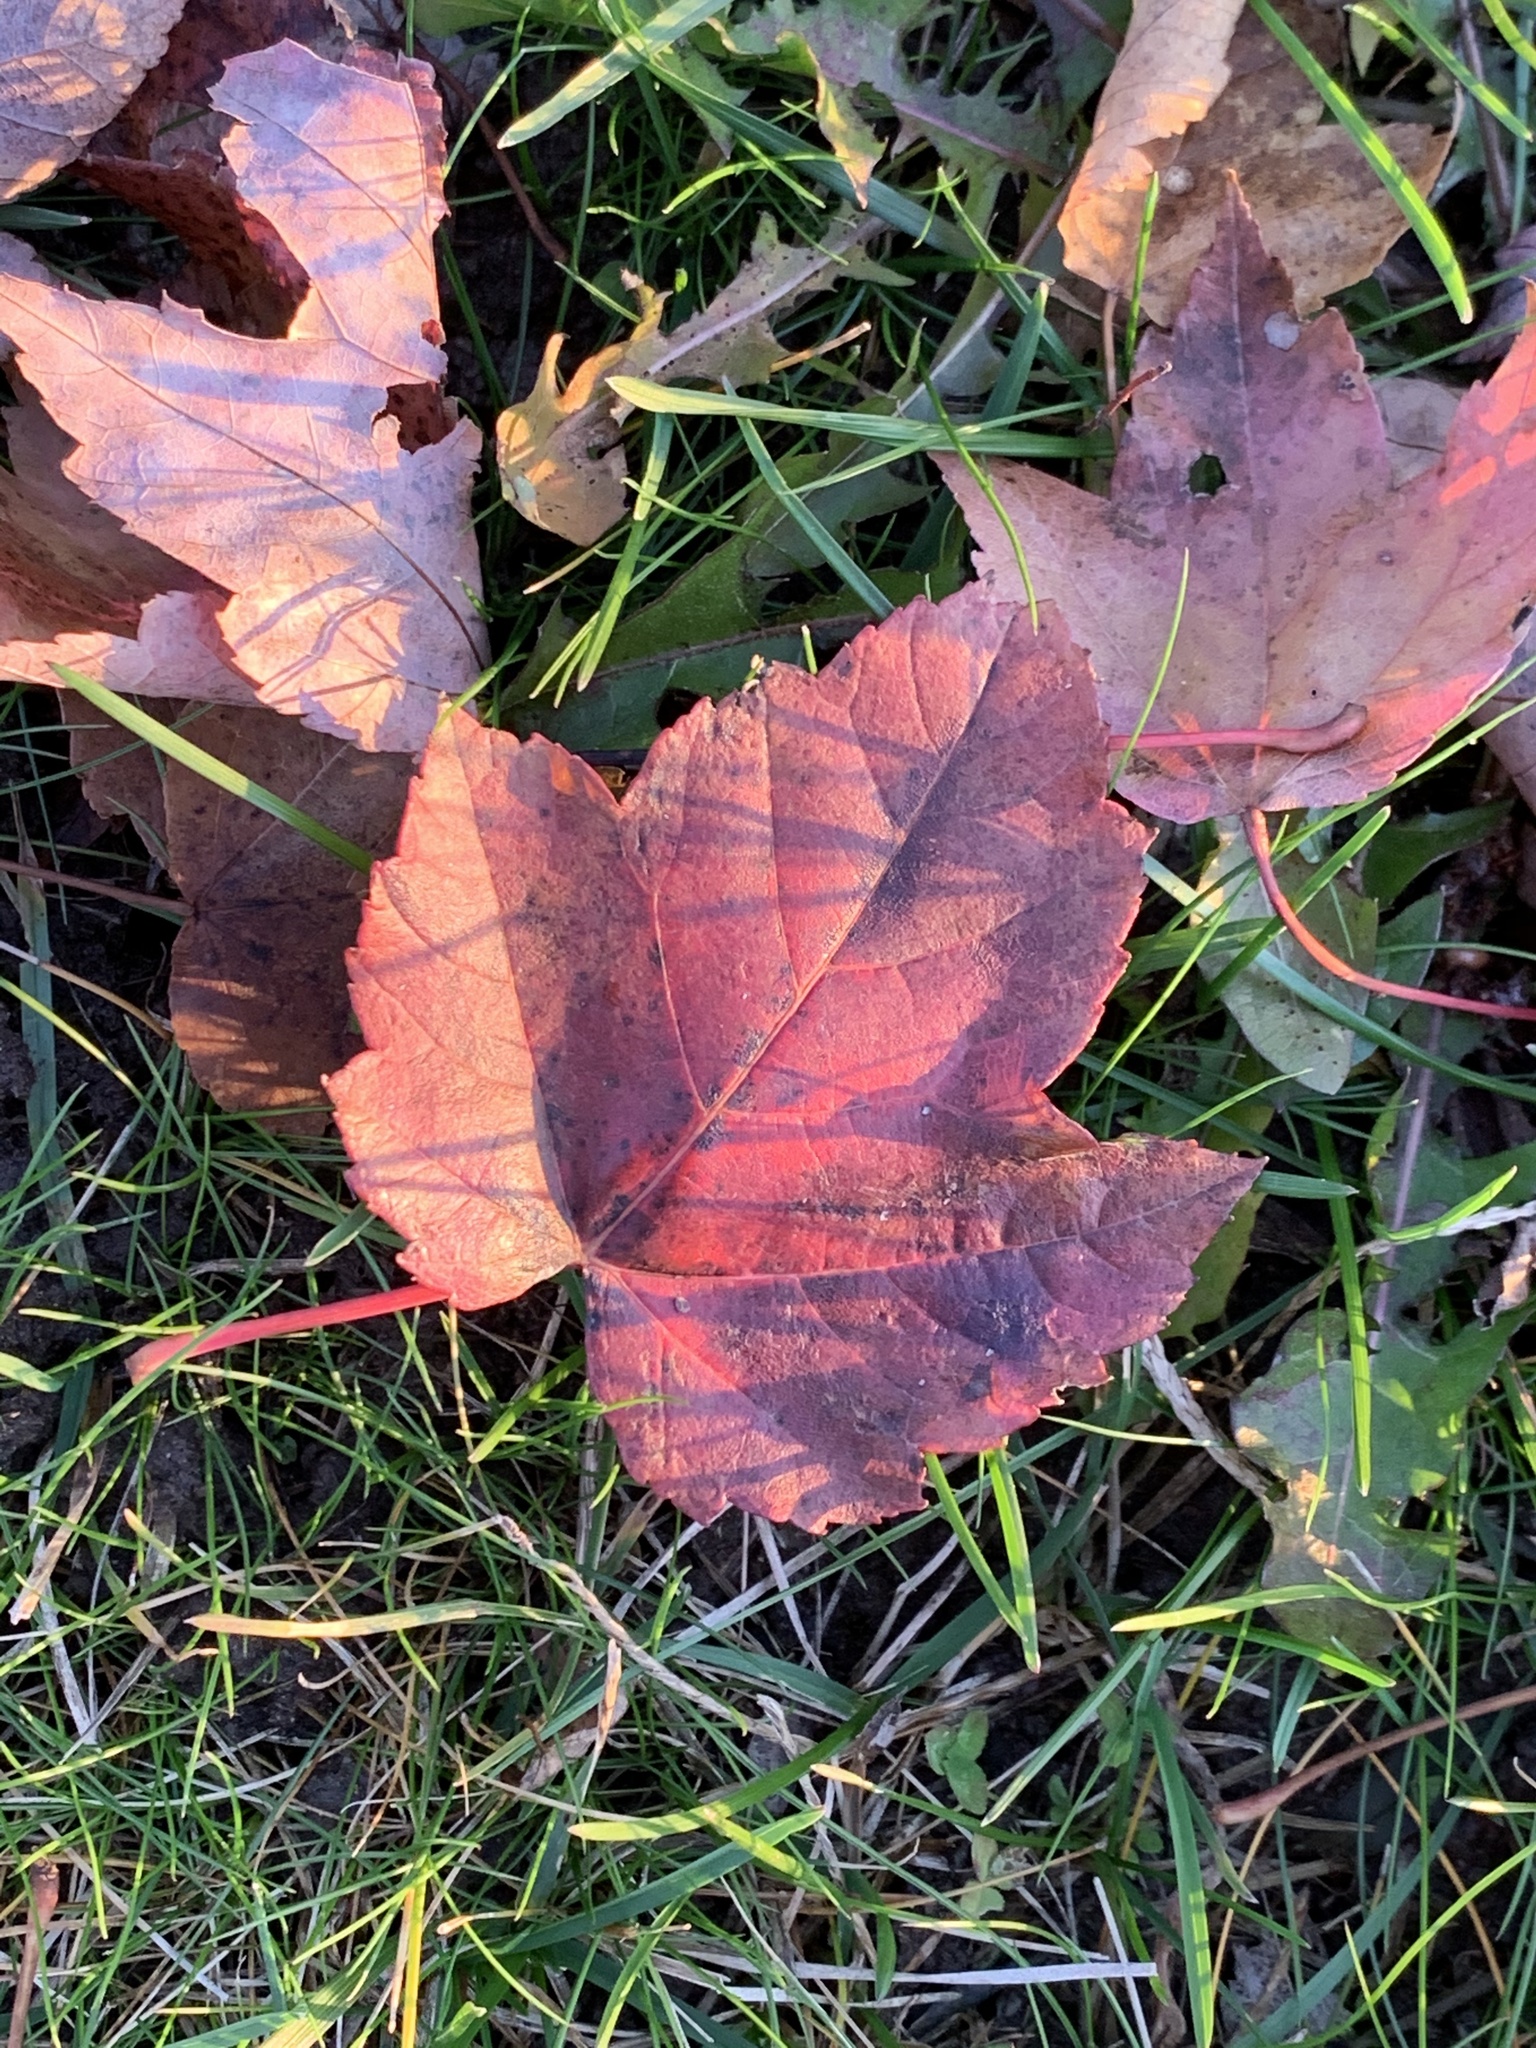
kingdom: Plantae
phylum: Tracheophyta
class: Magnoliopsida
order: Sapindales
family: Sapindaceae
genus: Acer
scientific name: Acer rubrum
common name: Red maple
